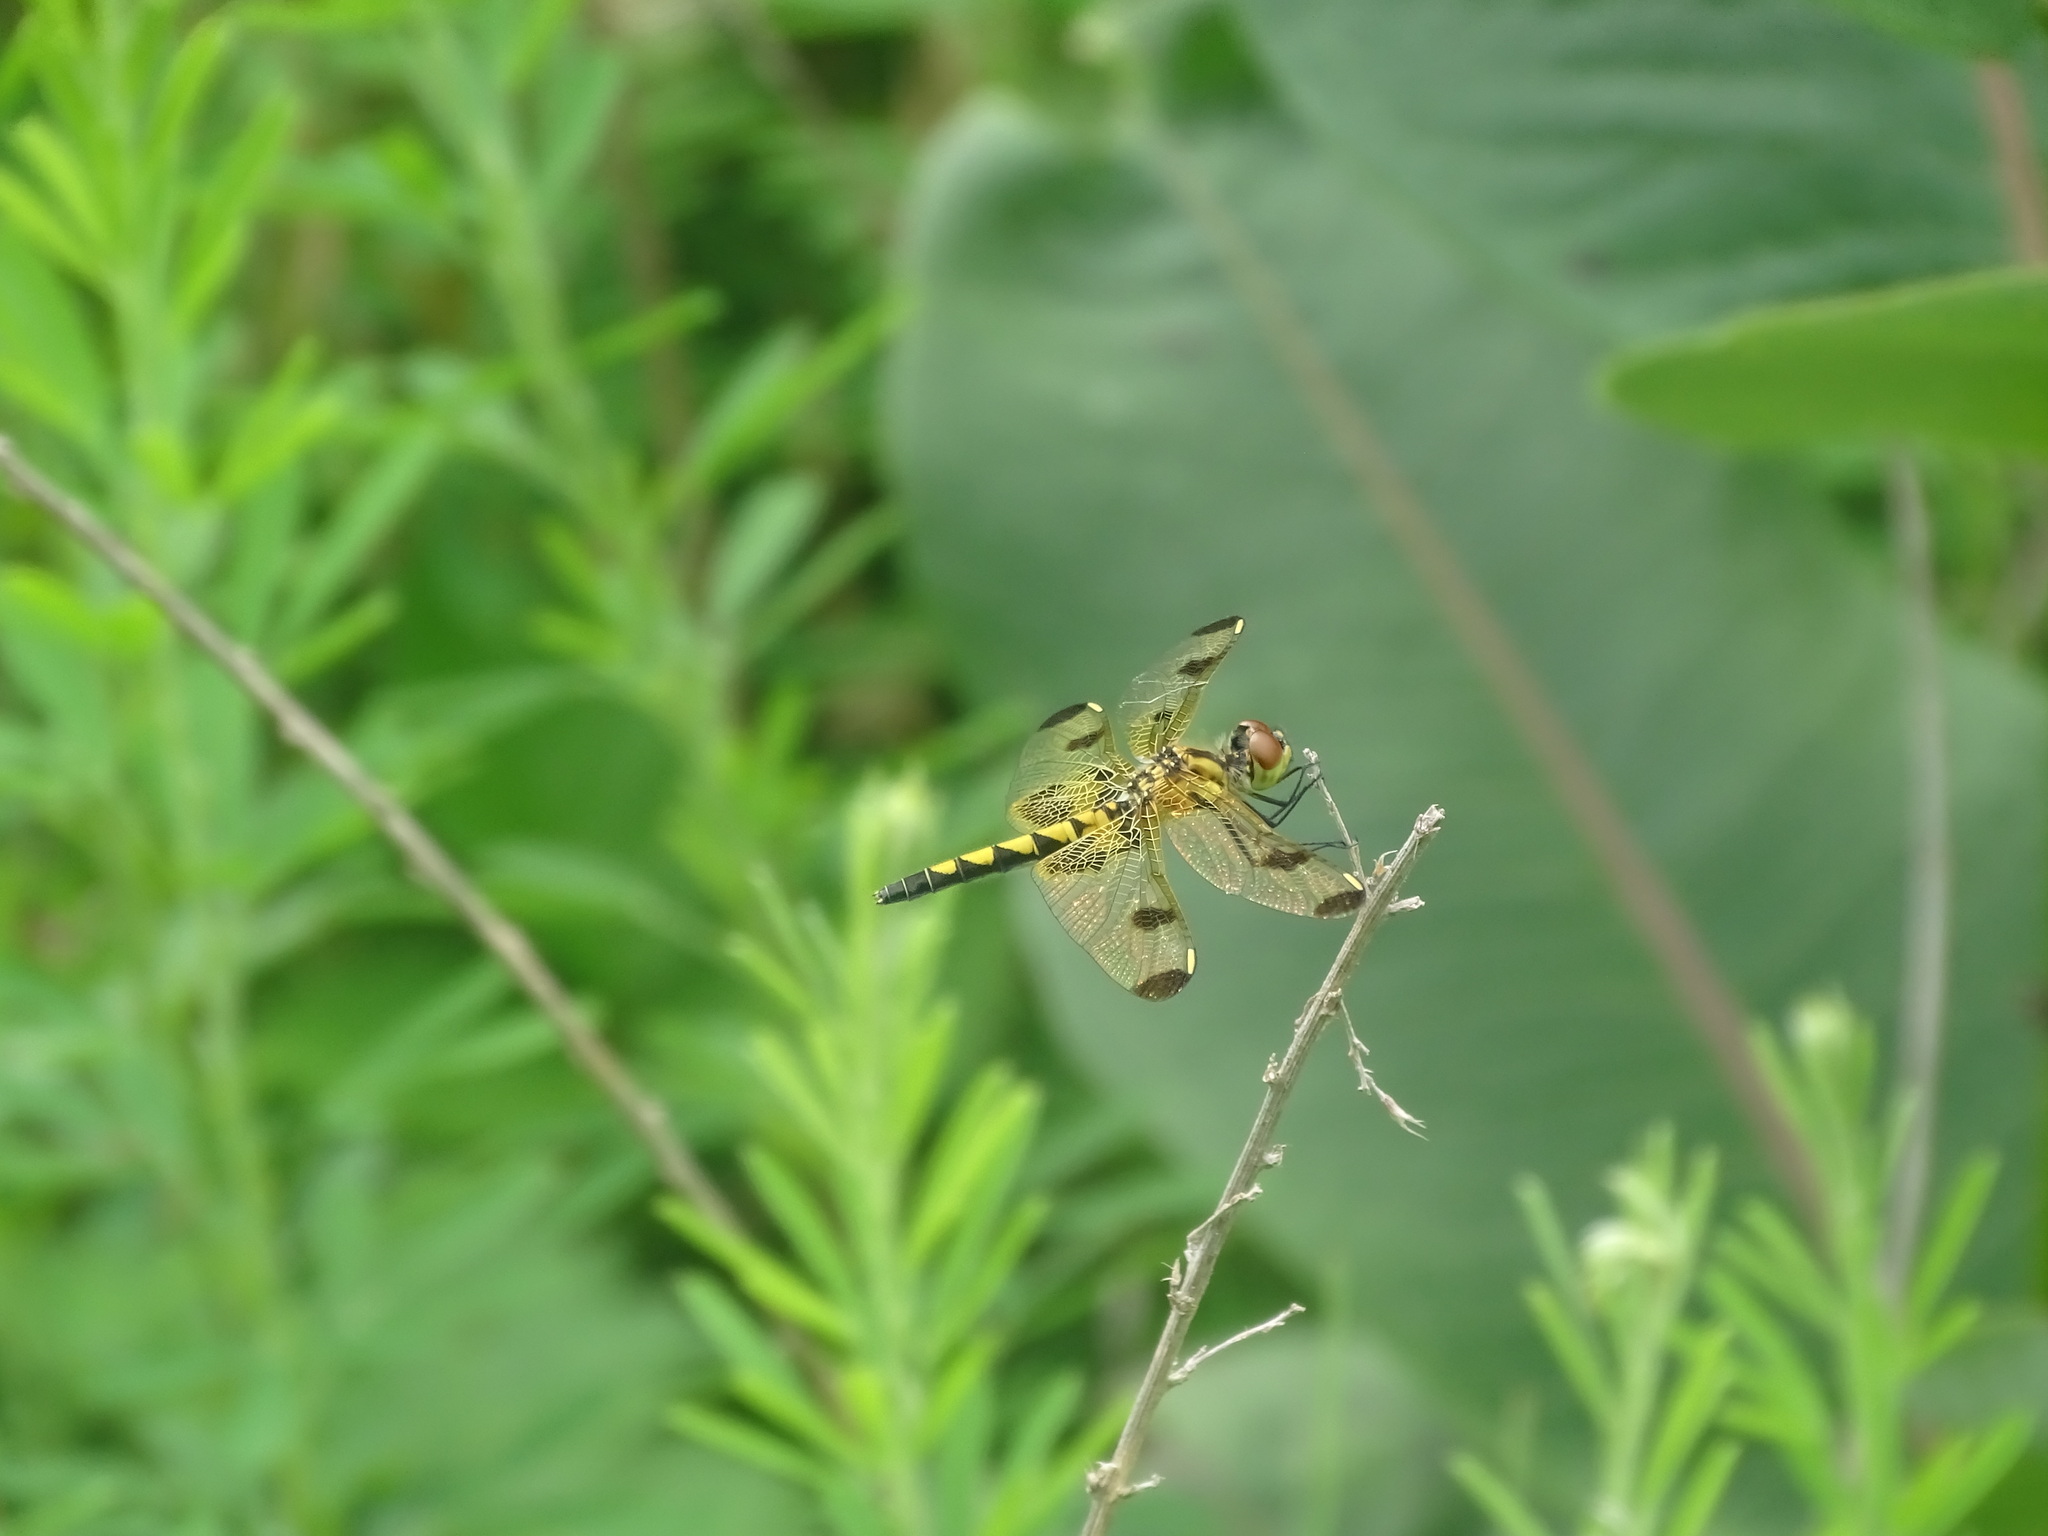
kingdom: Animalia
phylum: Arthropoda
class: Insecta
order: Odonata
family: Libellulidae
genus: Celithemis
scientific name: Celithemis elisa
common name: Calico pennant
